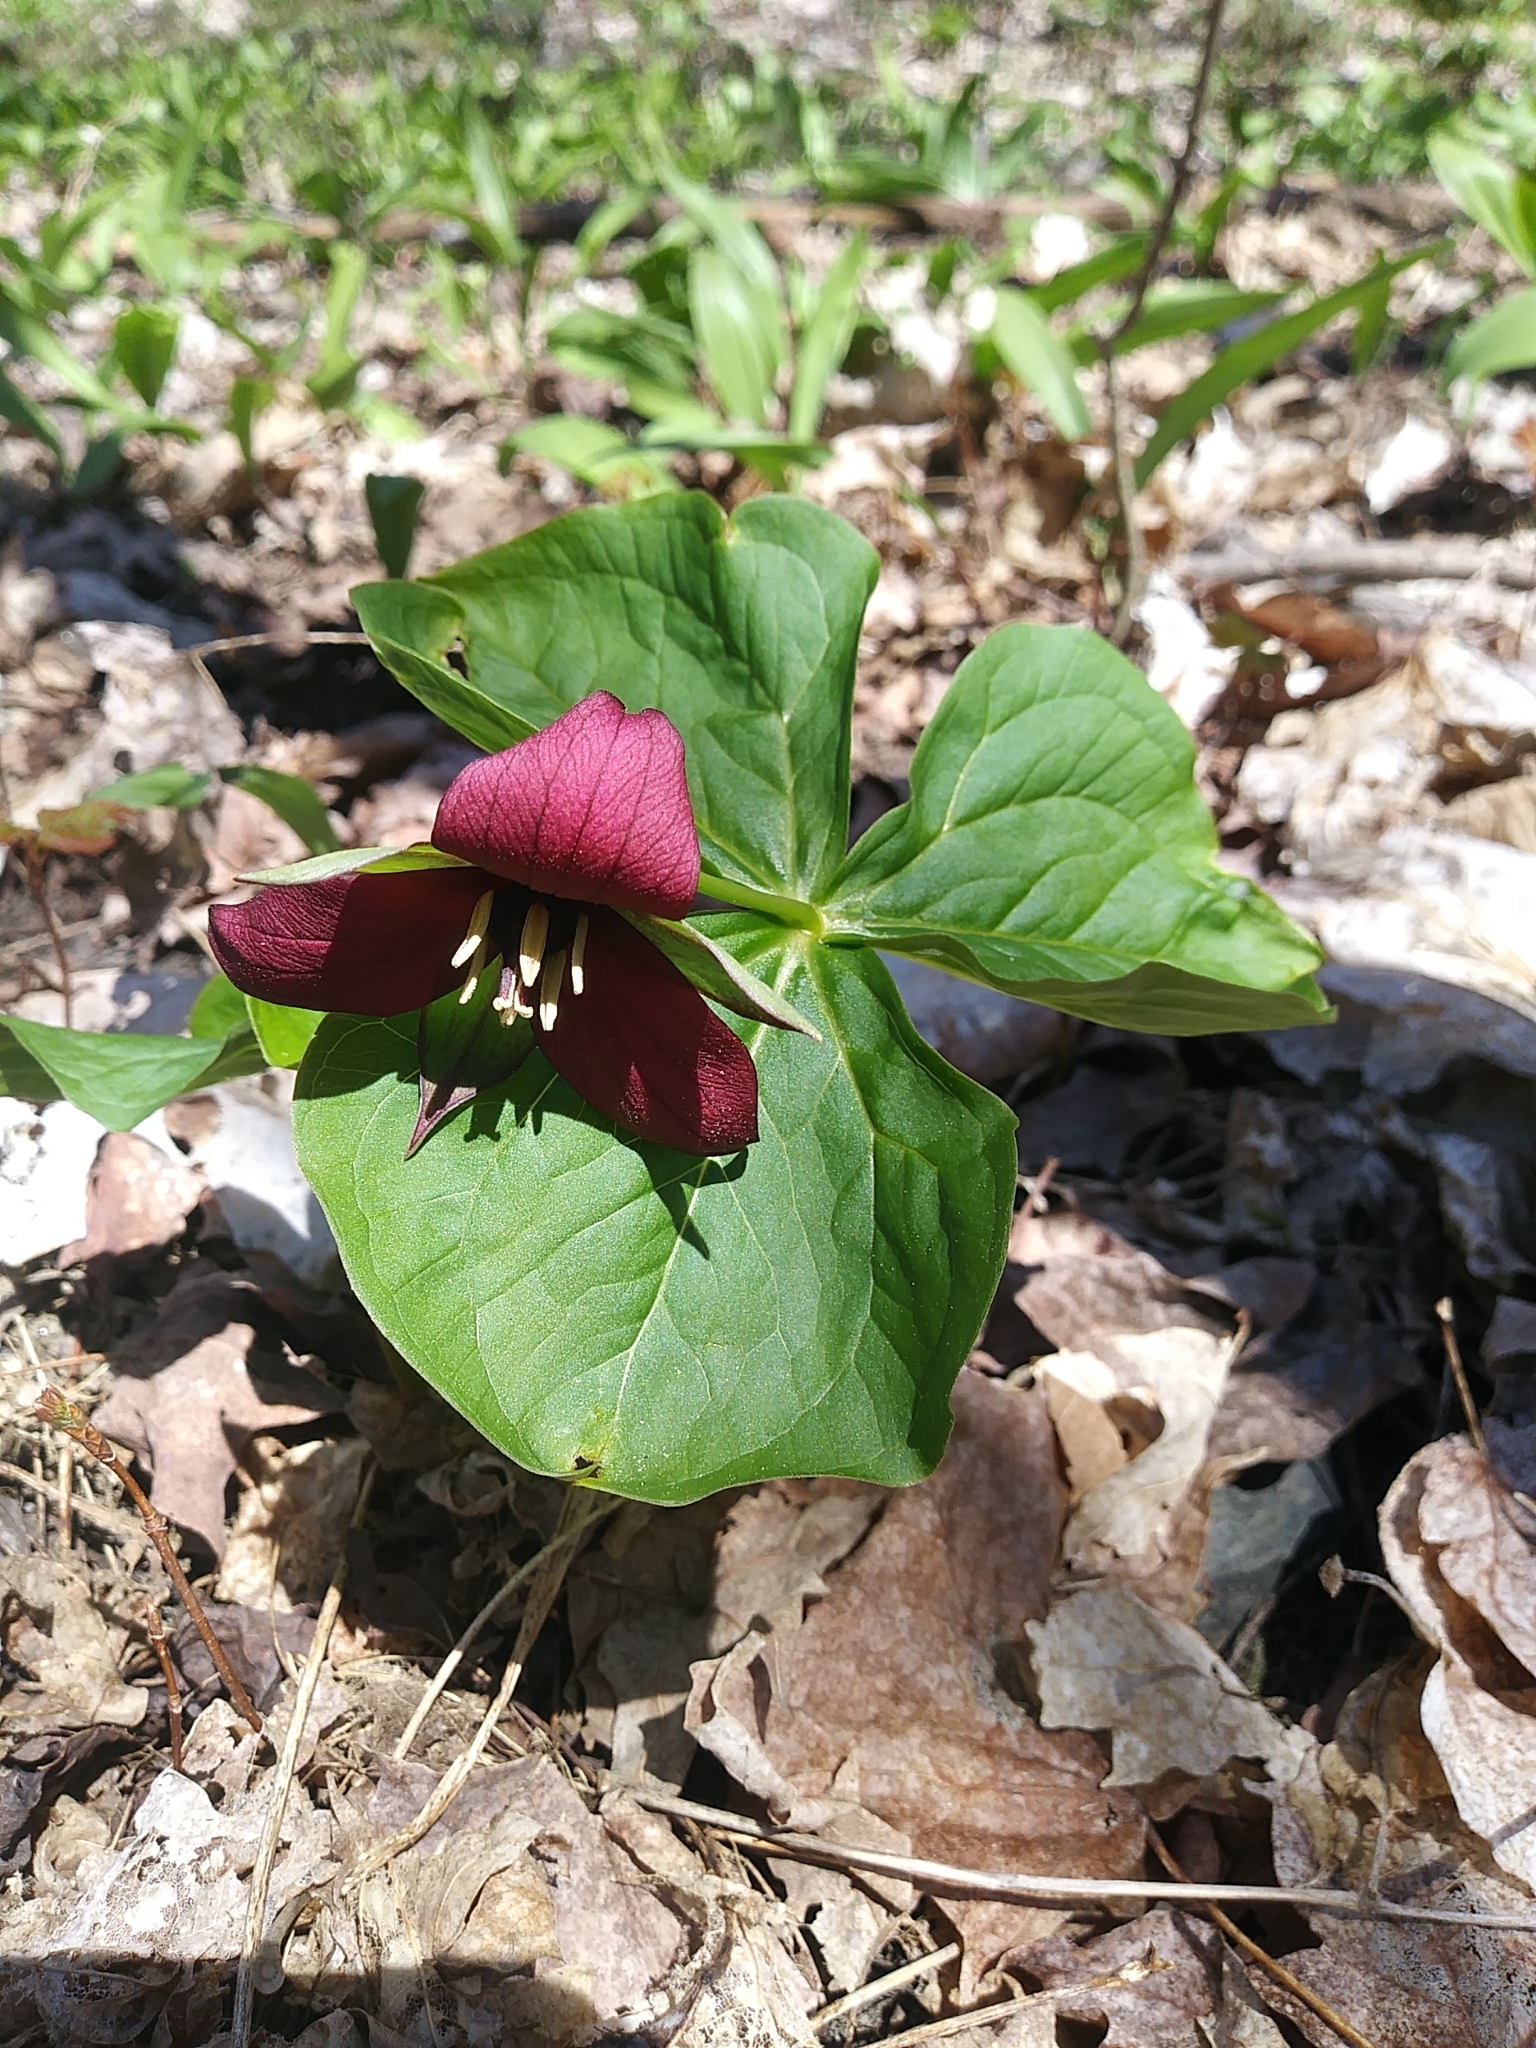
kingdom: Plantae
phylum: Tracheophyta
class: Liliopsida
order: Liliales
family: Melanthiaceae
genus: Trillium
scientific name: Trillium erectum
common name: Purple trillium
